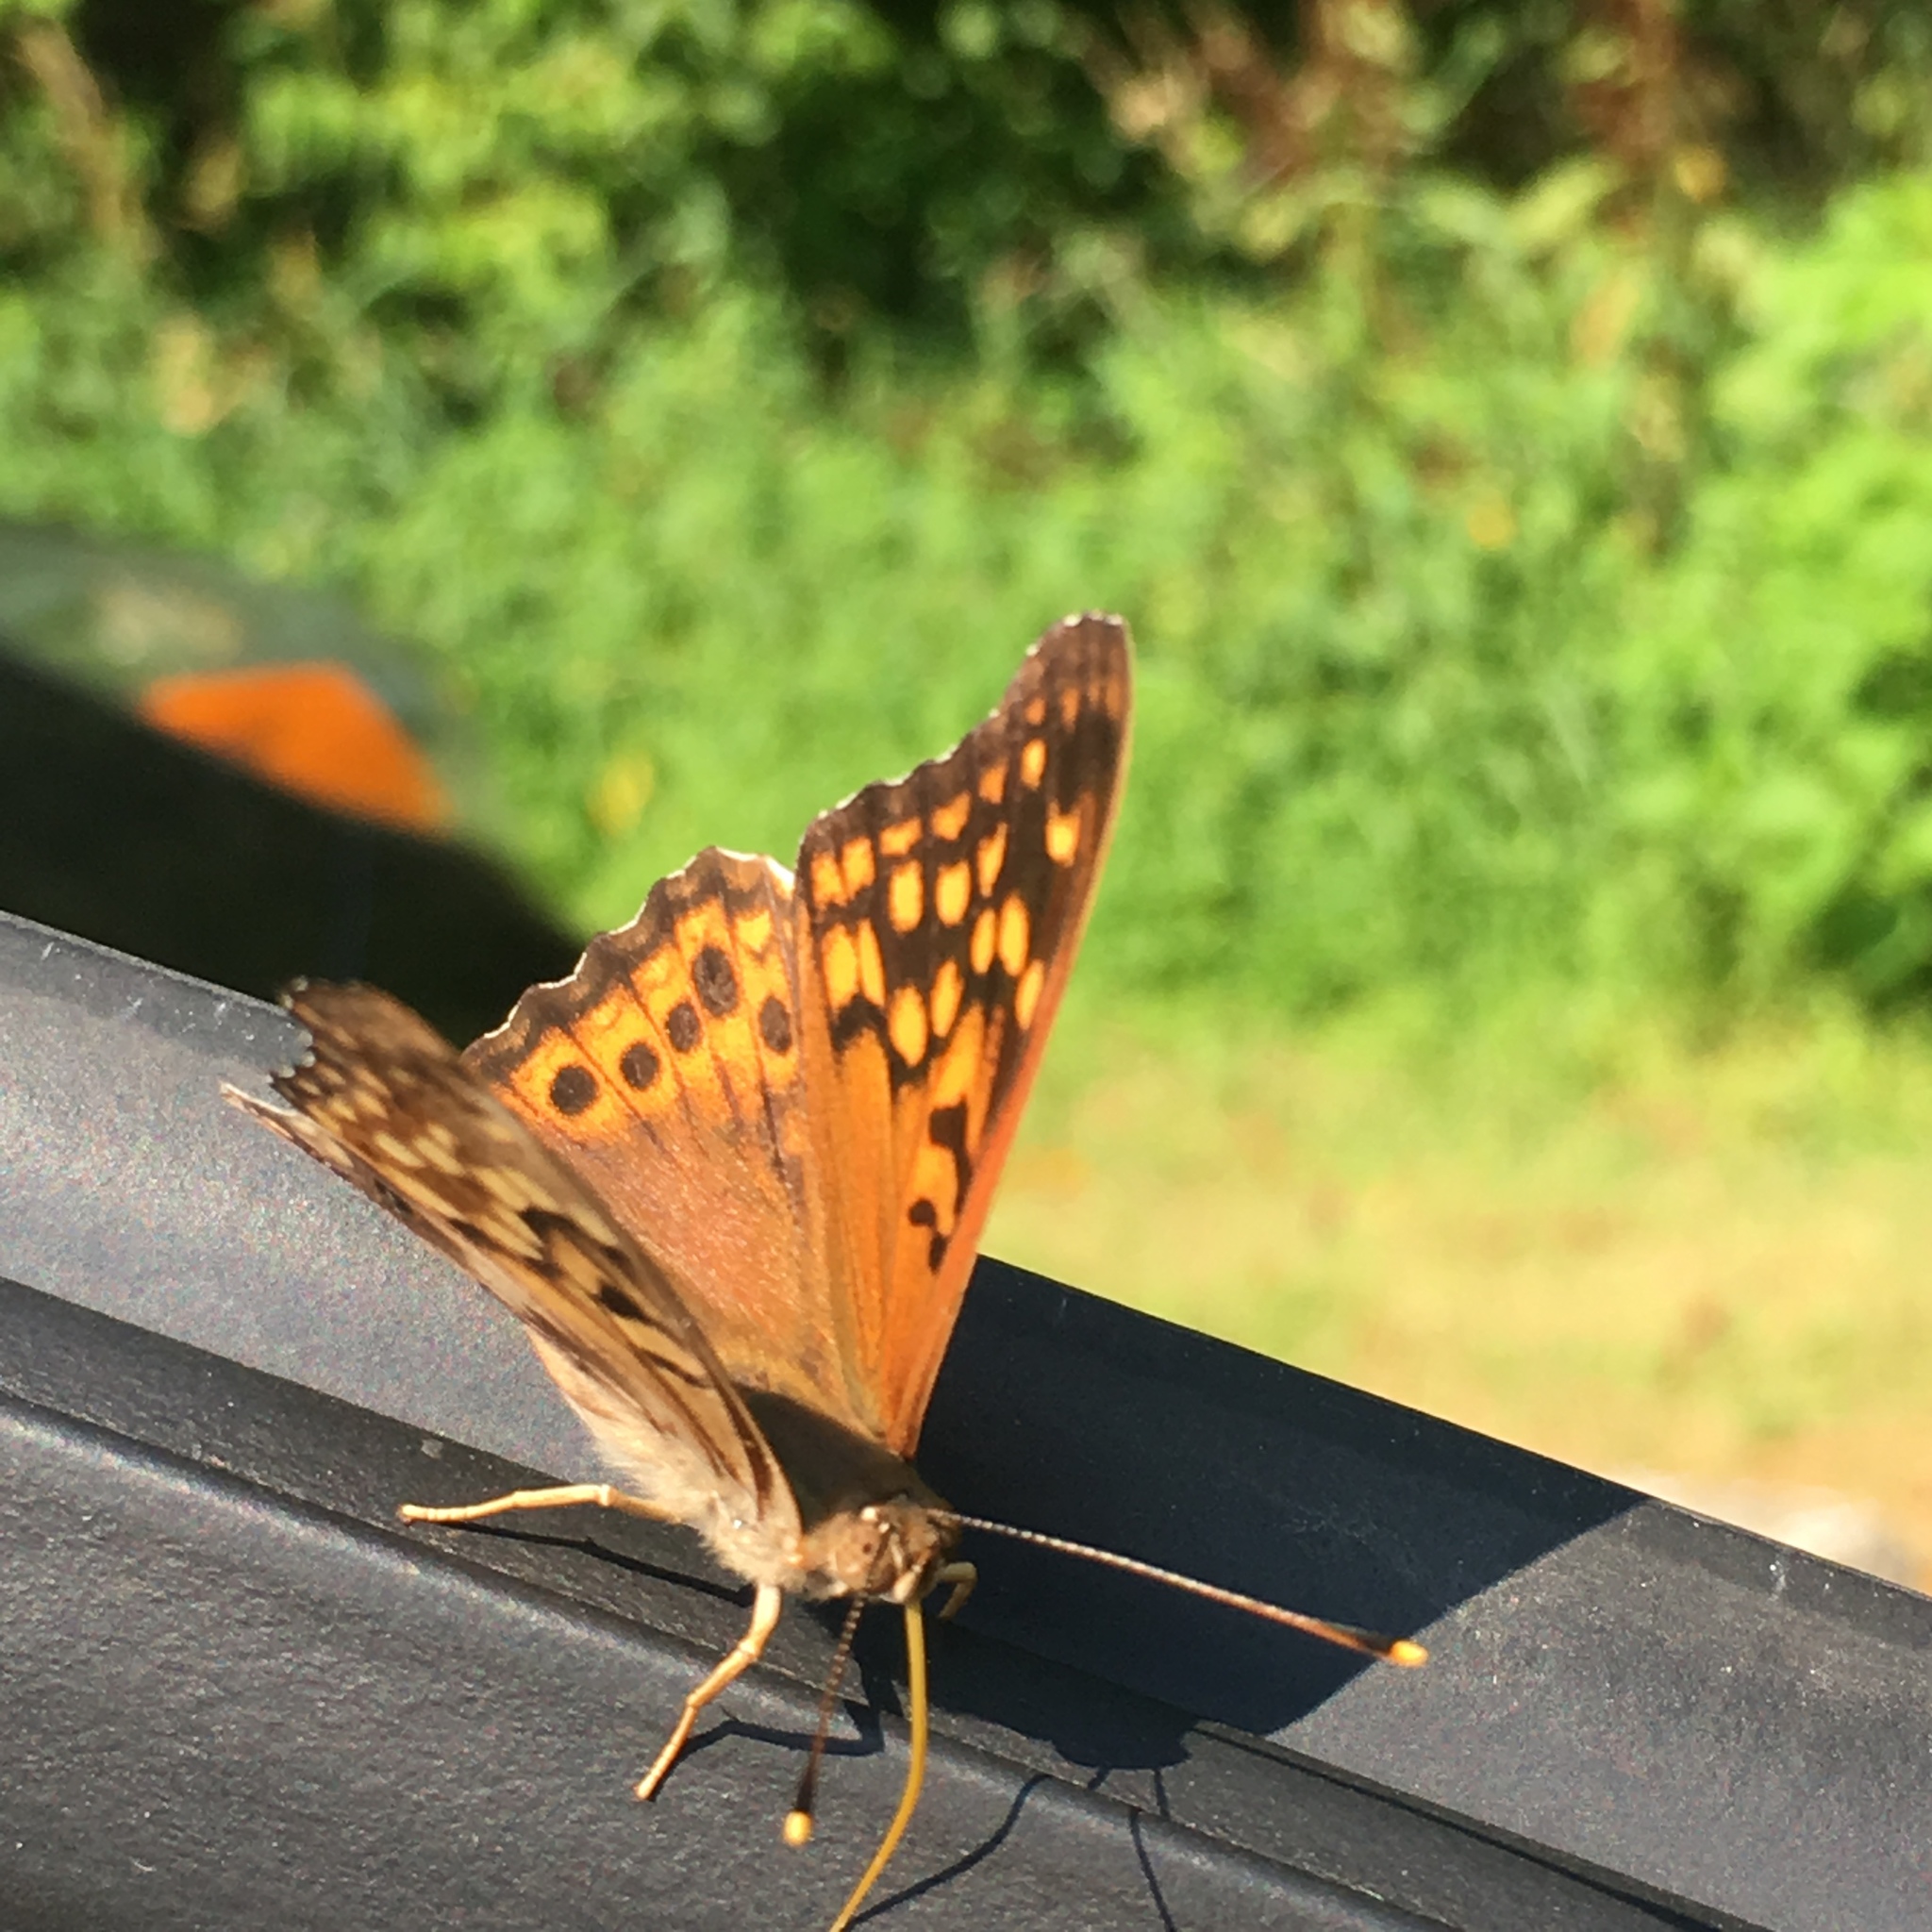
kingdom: Animalia
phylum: Arthropoda
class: Insecta
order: Lepidoptera
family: Nymphalidae
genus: Asterocampa
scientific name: Asterocampa clyton
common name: Tawny emperor
